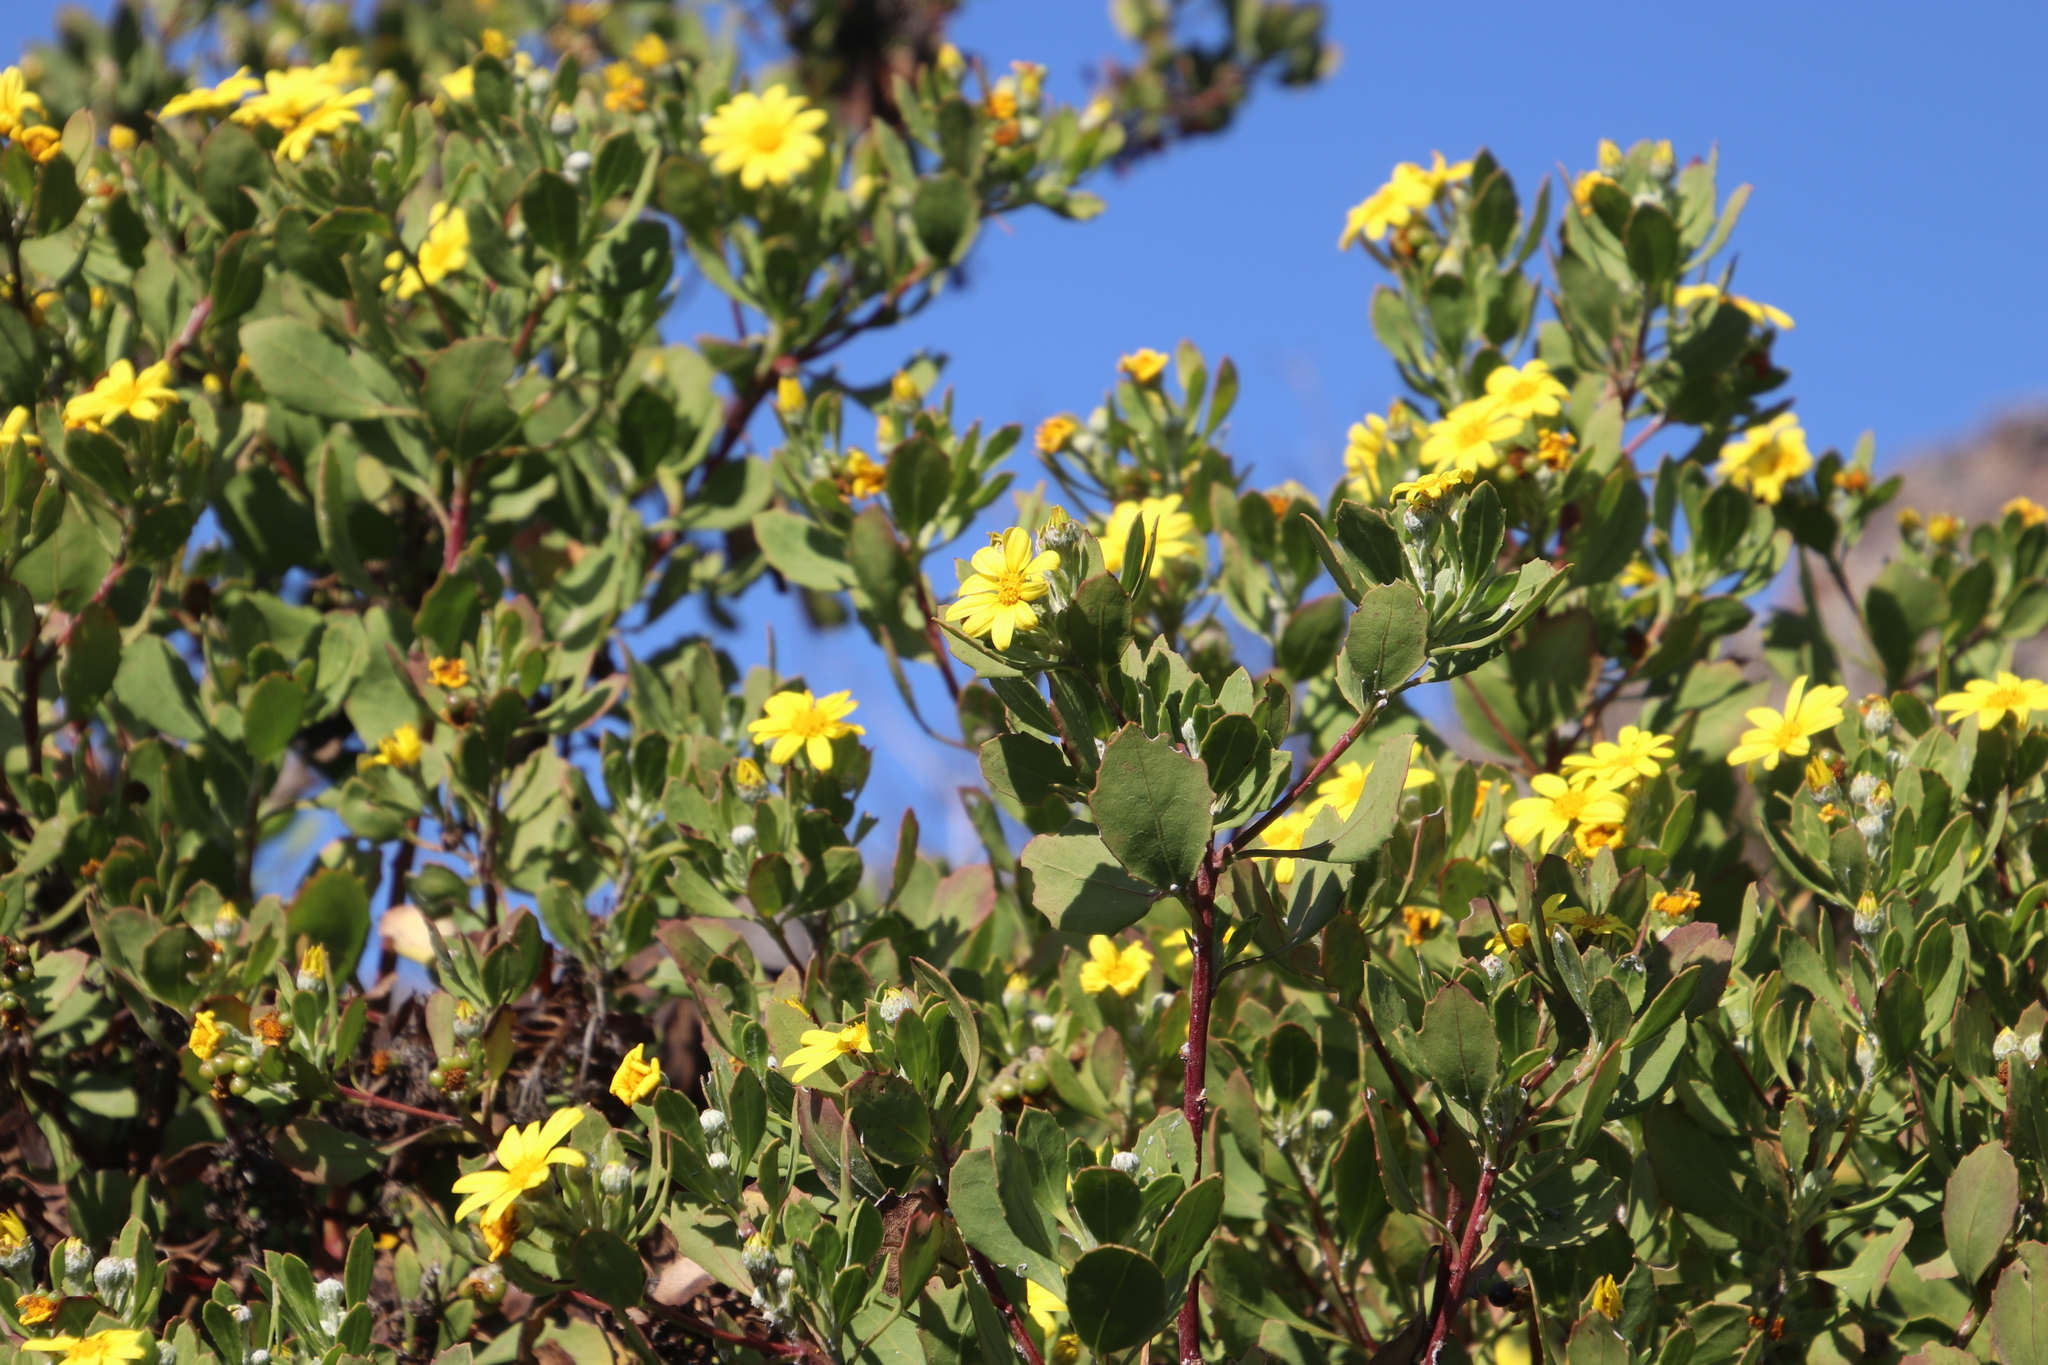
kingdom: Plantae
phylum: Tracheophyta
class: Magnoliopsida
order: Asterales
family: Asteraceae
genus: Osteospermum
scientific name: Osteospermum moniliferum
